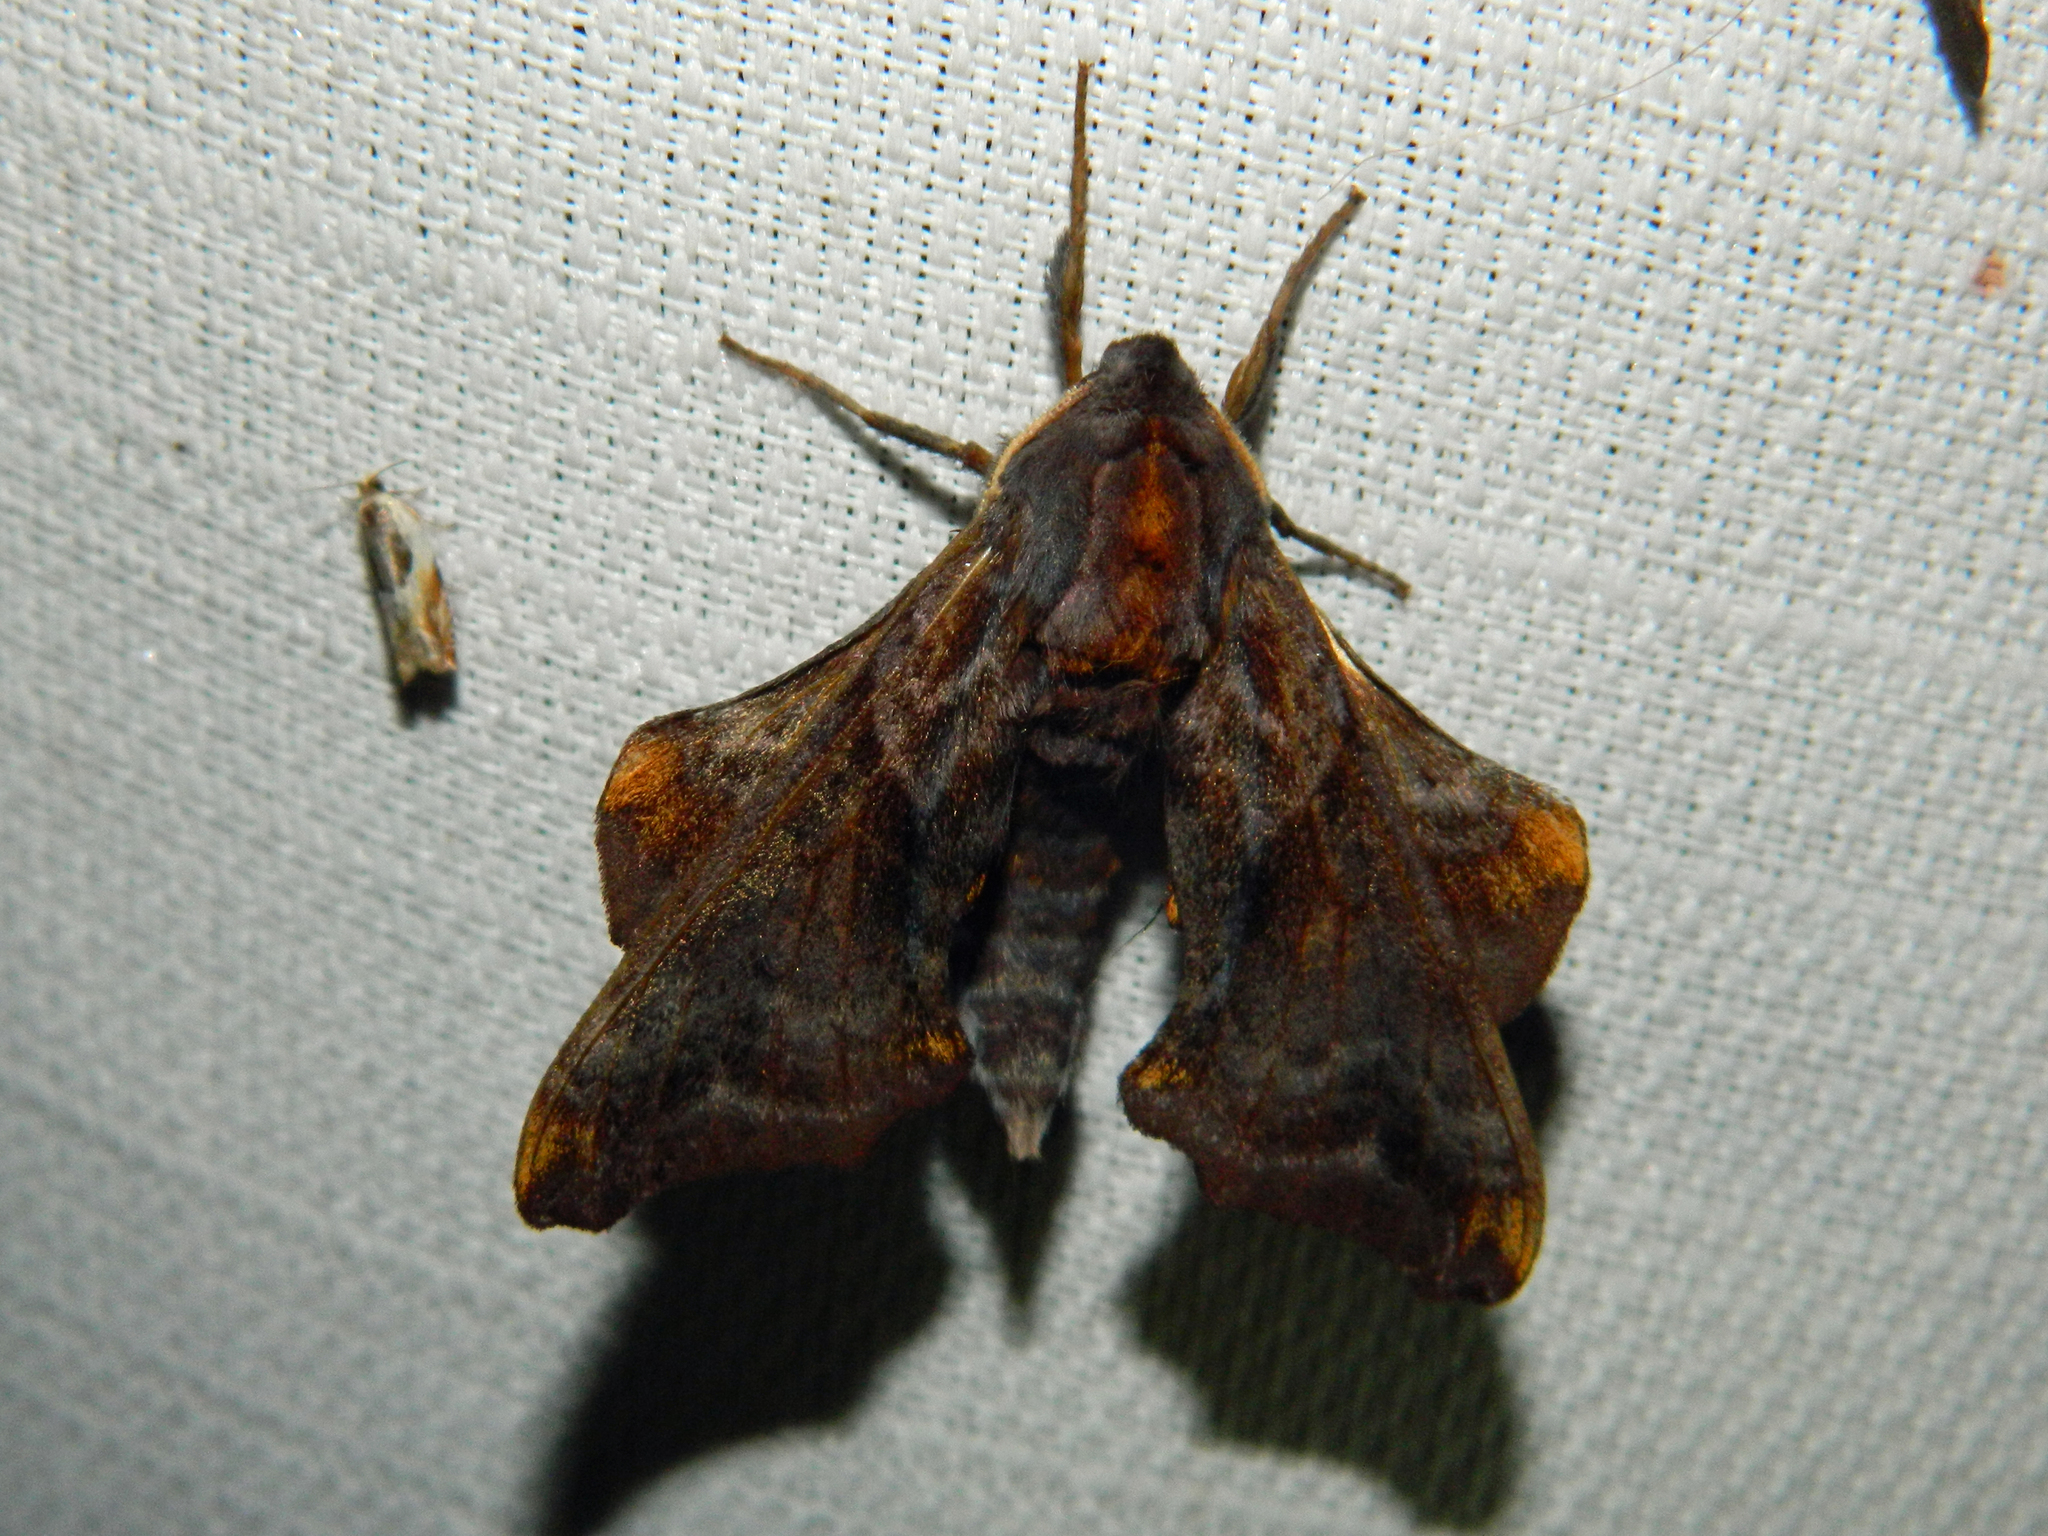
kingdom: Animalia
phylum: Arthropoda
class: Insecta
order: Lepidoptera
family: Sphingidae
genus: Paonias
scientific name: Paonias myops
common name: Small-eyed sphinx
